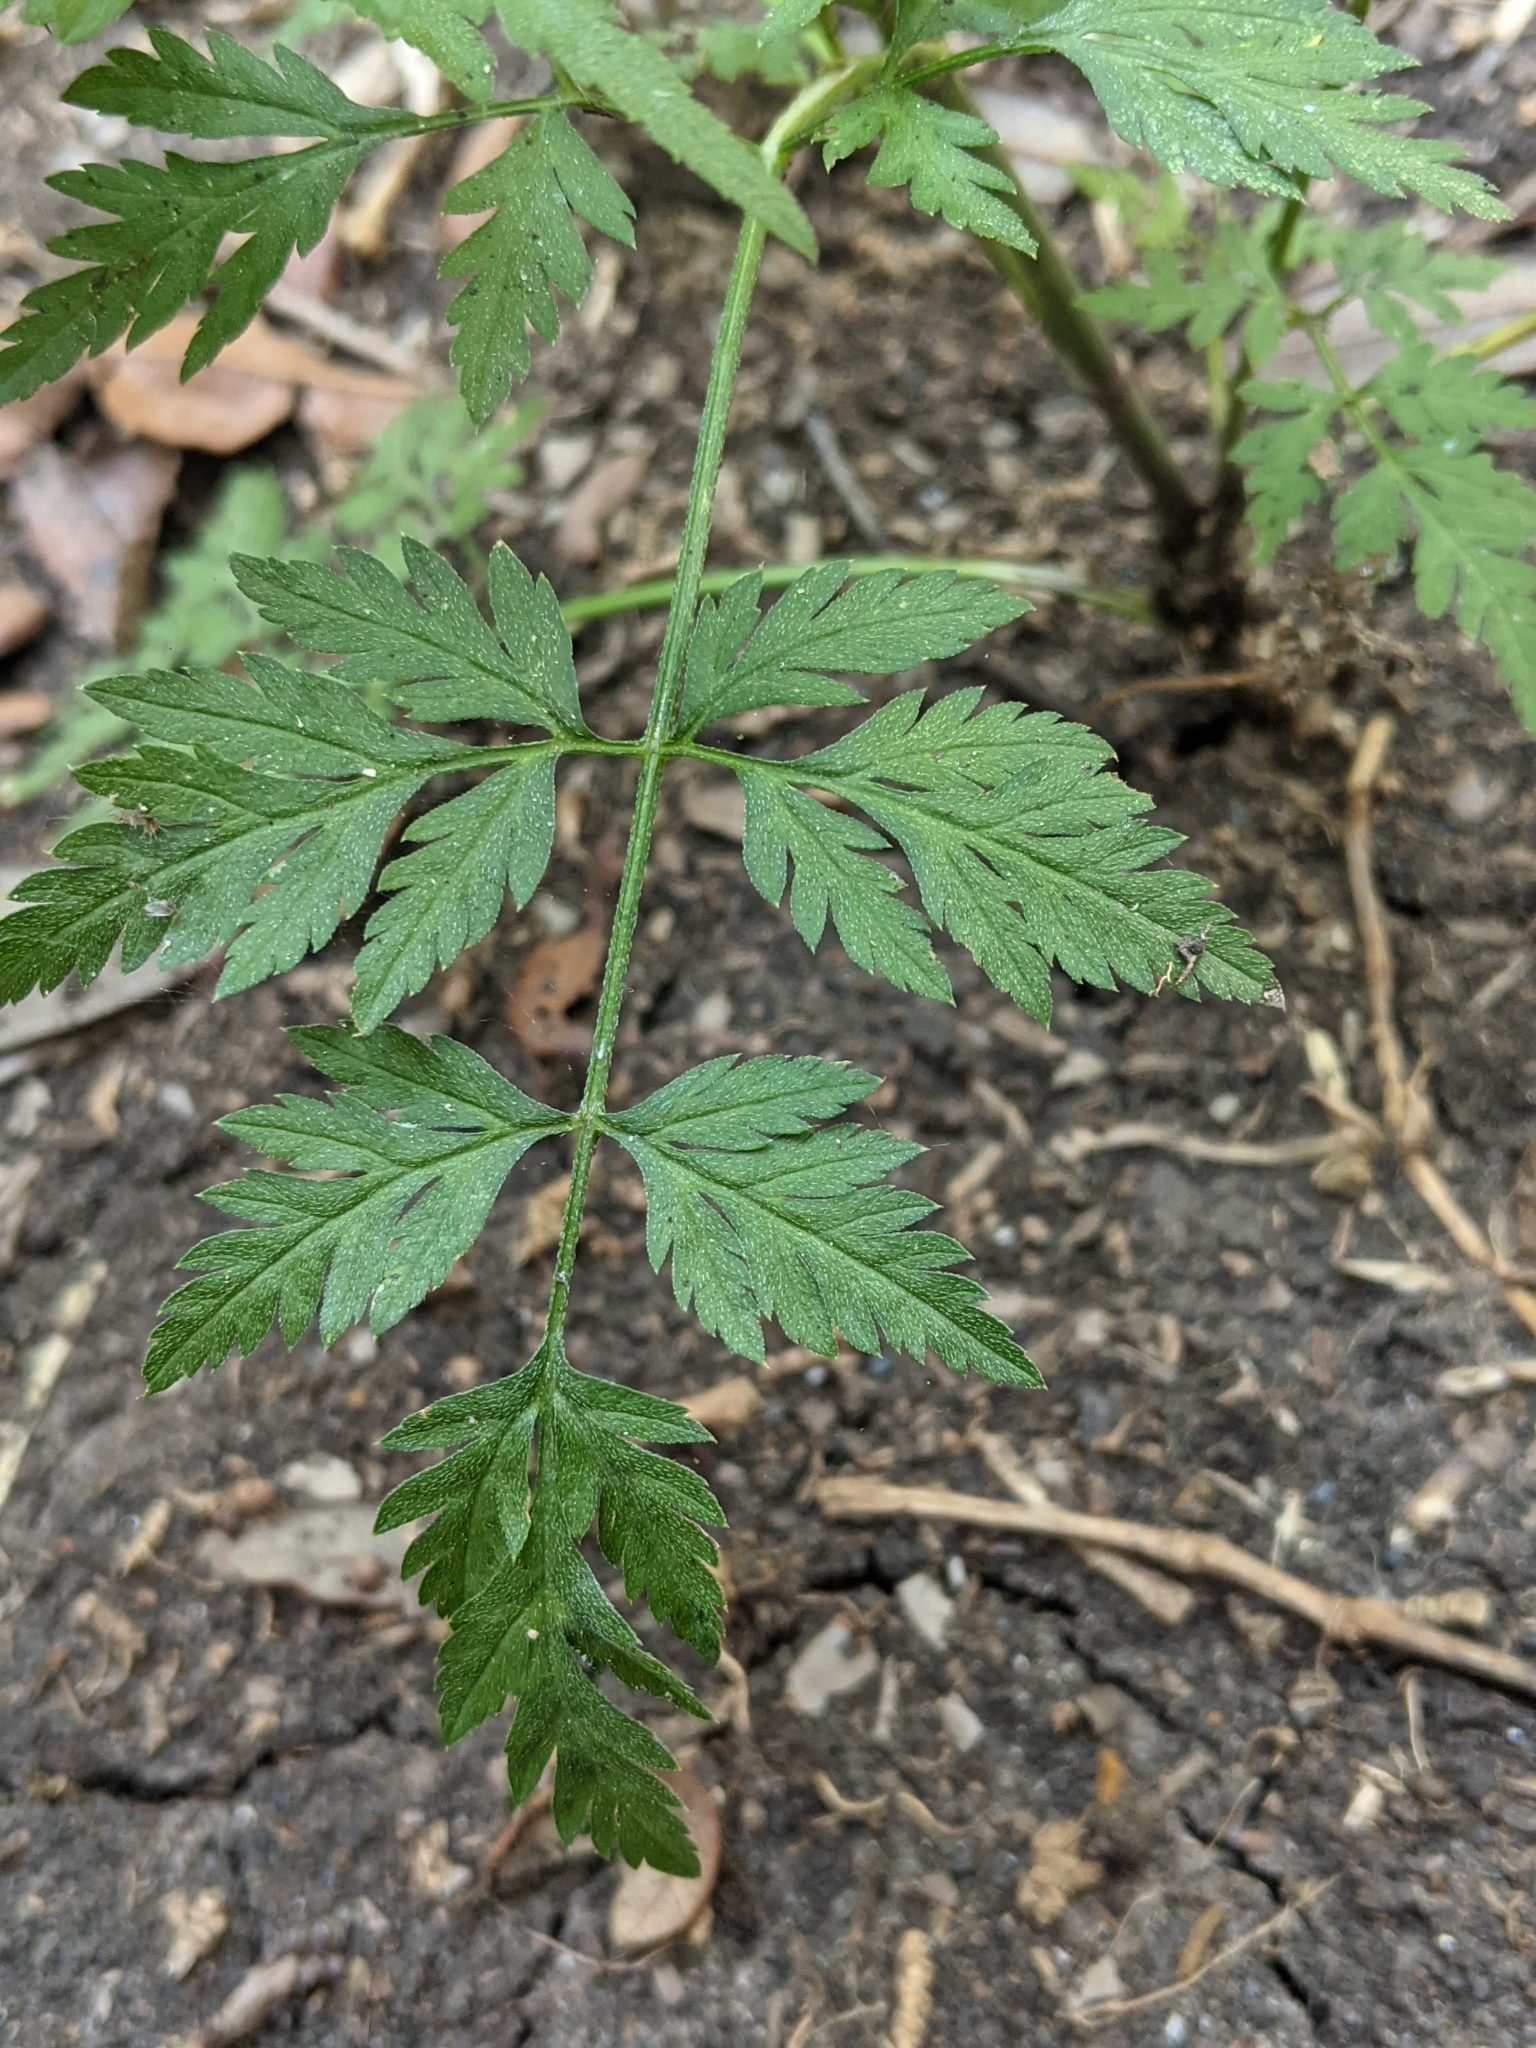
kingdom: Plantae
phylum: Tracheophyta
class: Magnoliopsida
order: Apiales
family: Apiaceae
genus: Torilis
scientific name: Torilis arvensis
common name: Spreading hedge-parsley
